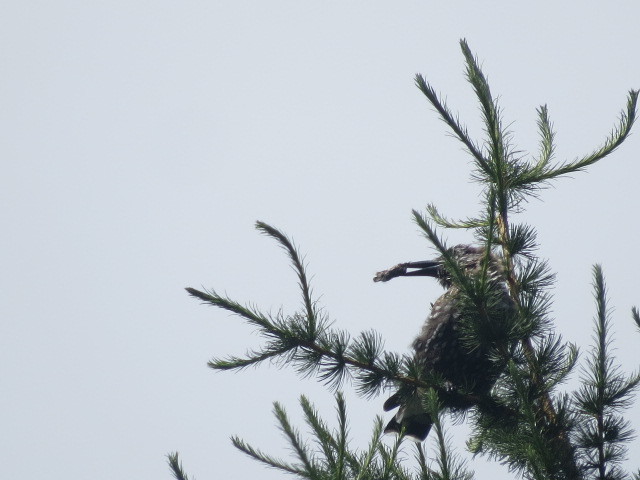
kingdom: Animalia
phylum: Chordata
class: Aves
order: Passeriformes
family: Corvidae
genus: Nucifraga
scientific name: Nucifraga caryocatactes
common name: Spotted nutcracker
